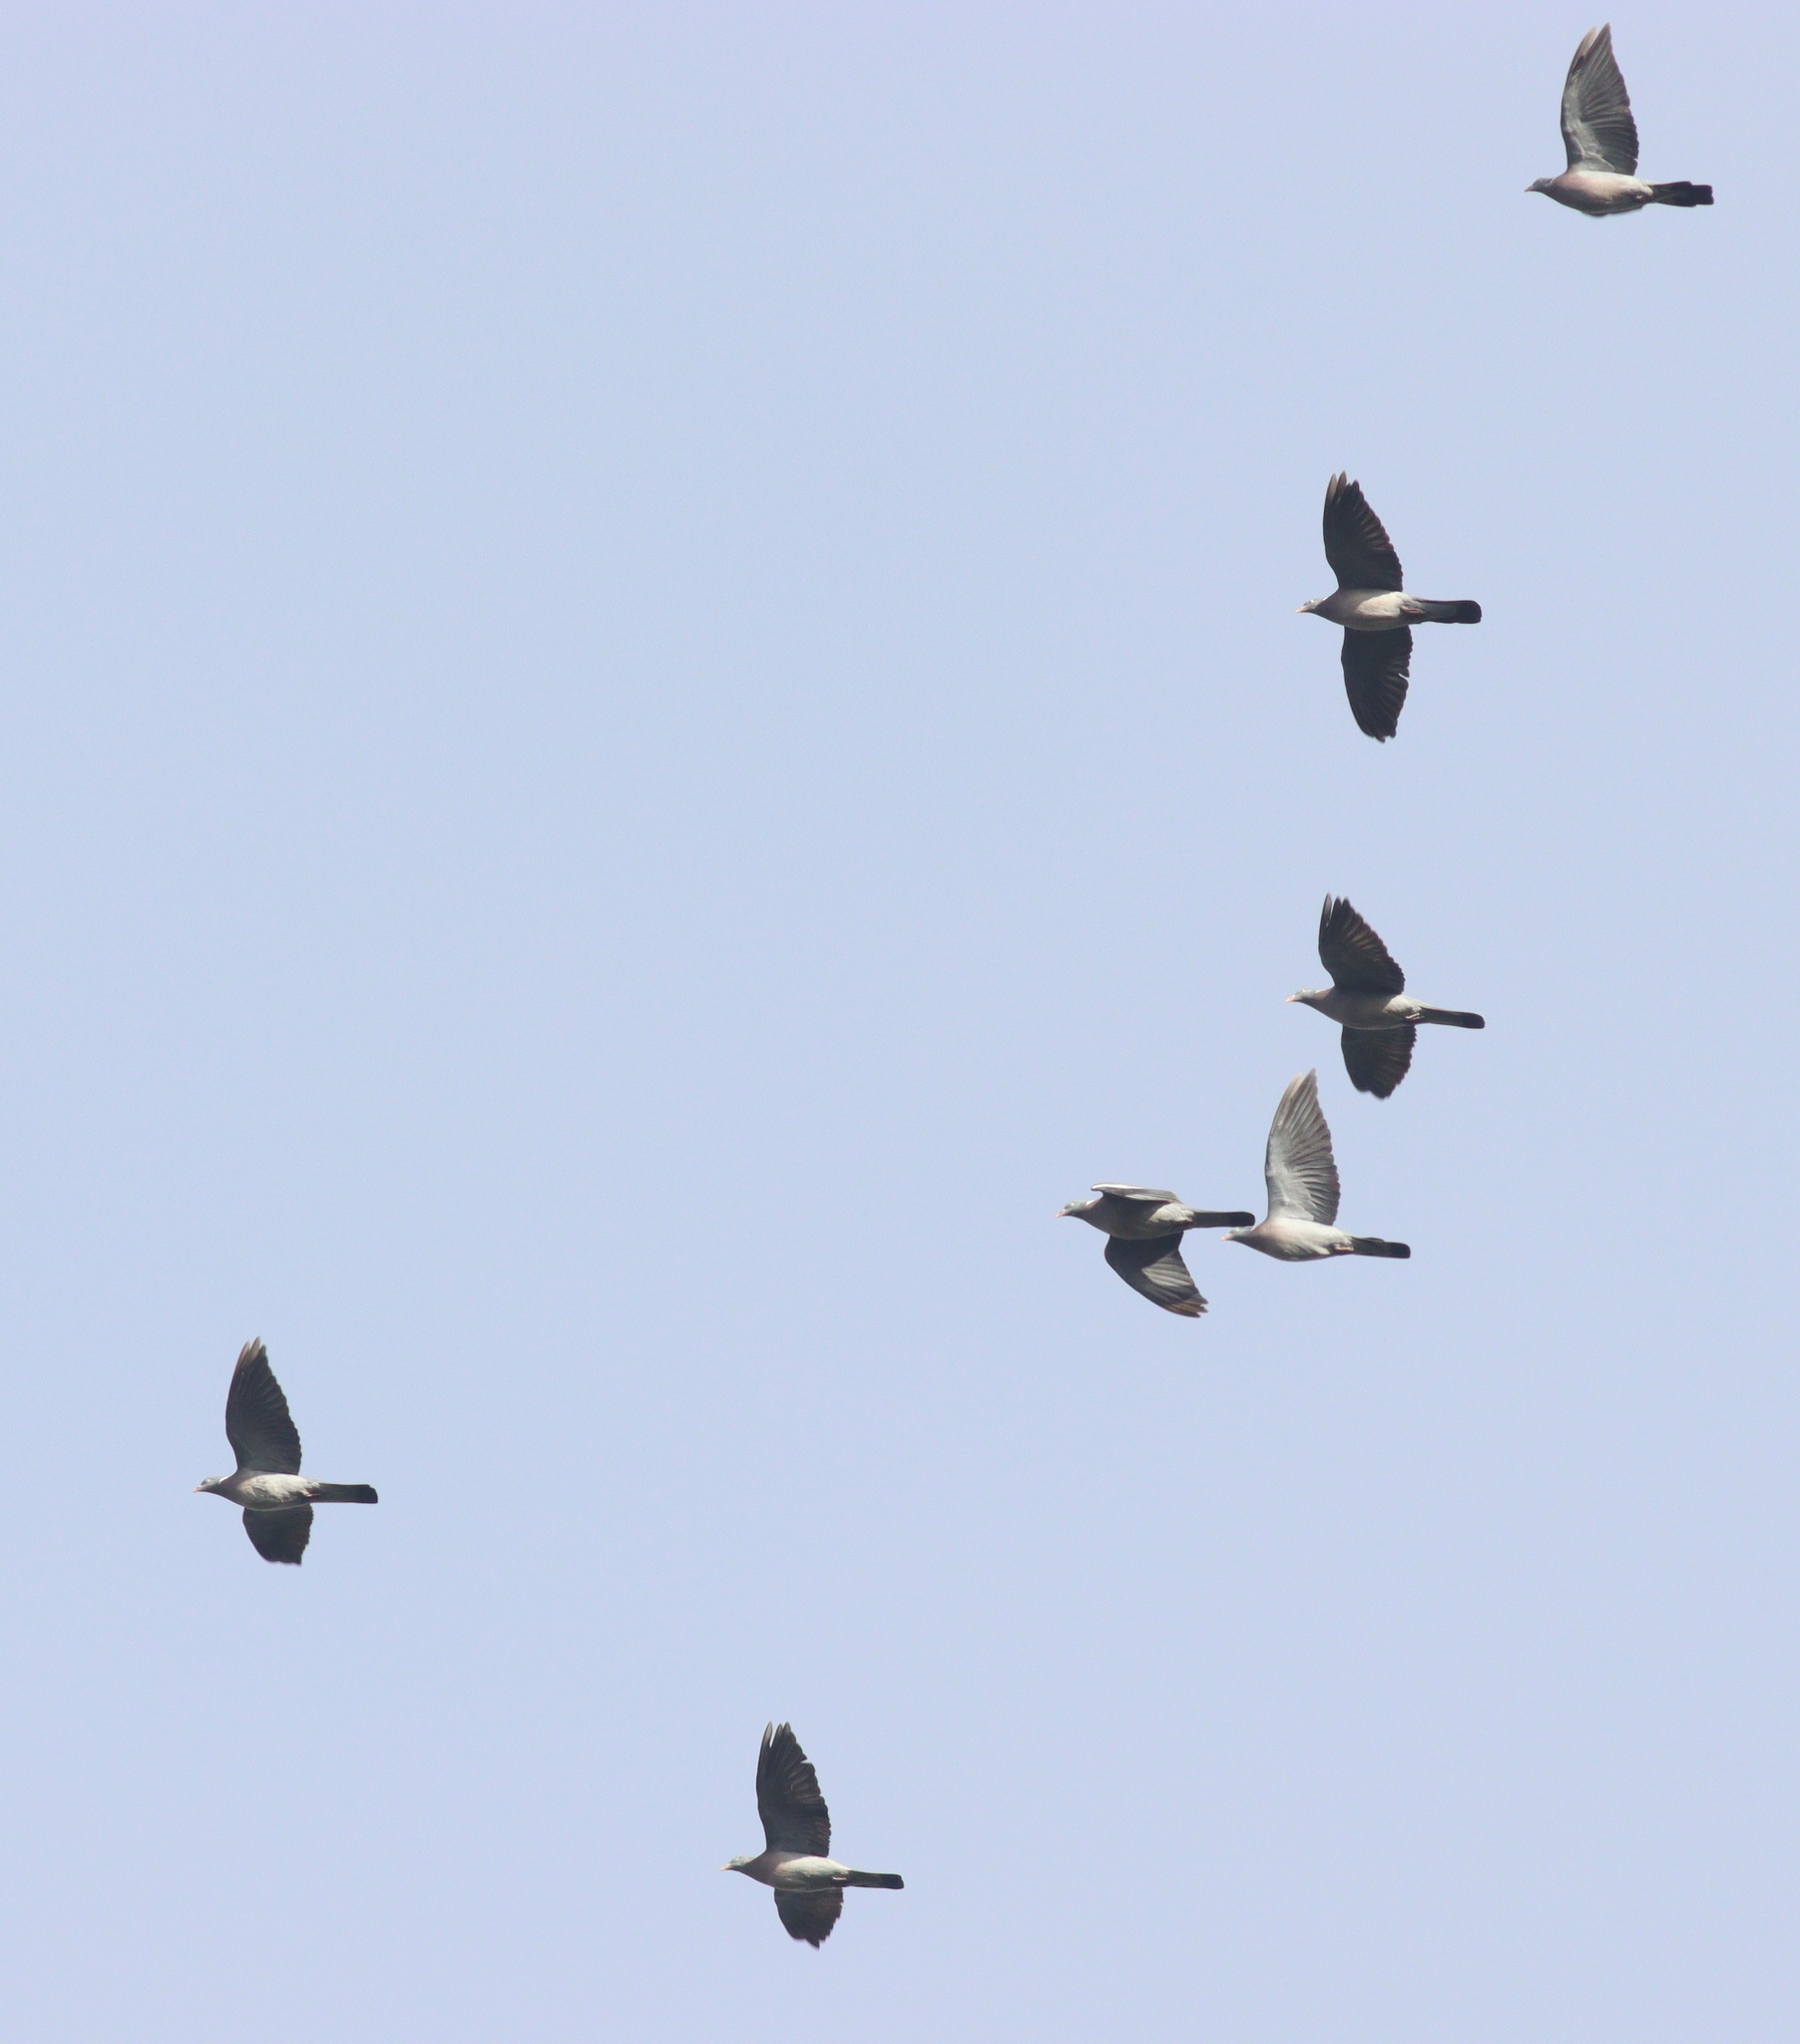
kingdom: Animalia
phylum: Chordata
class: Aves
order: Columbiformes
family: Columbidae
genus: Columba
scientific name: Columba palumbus
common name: Common wood pigeon
